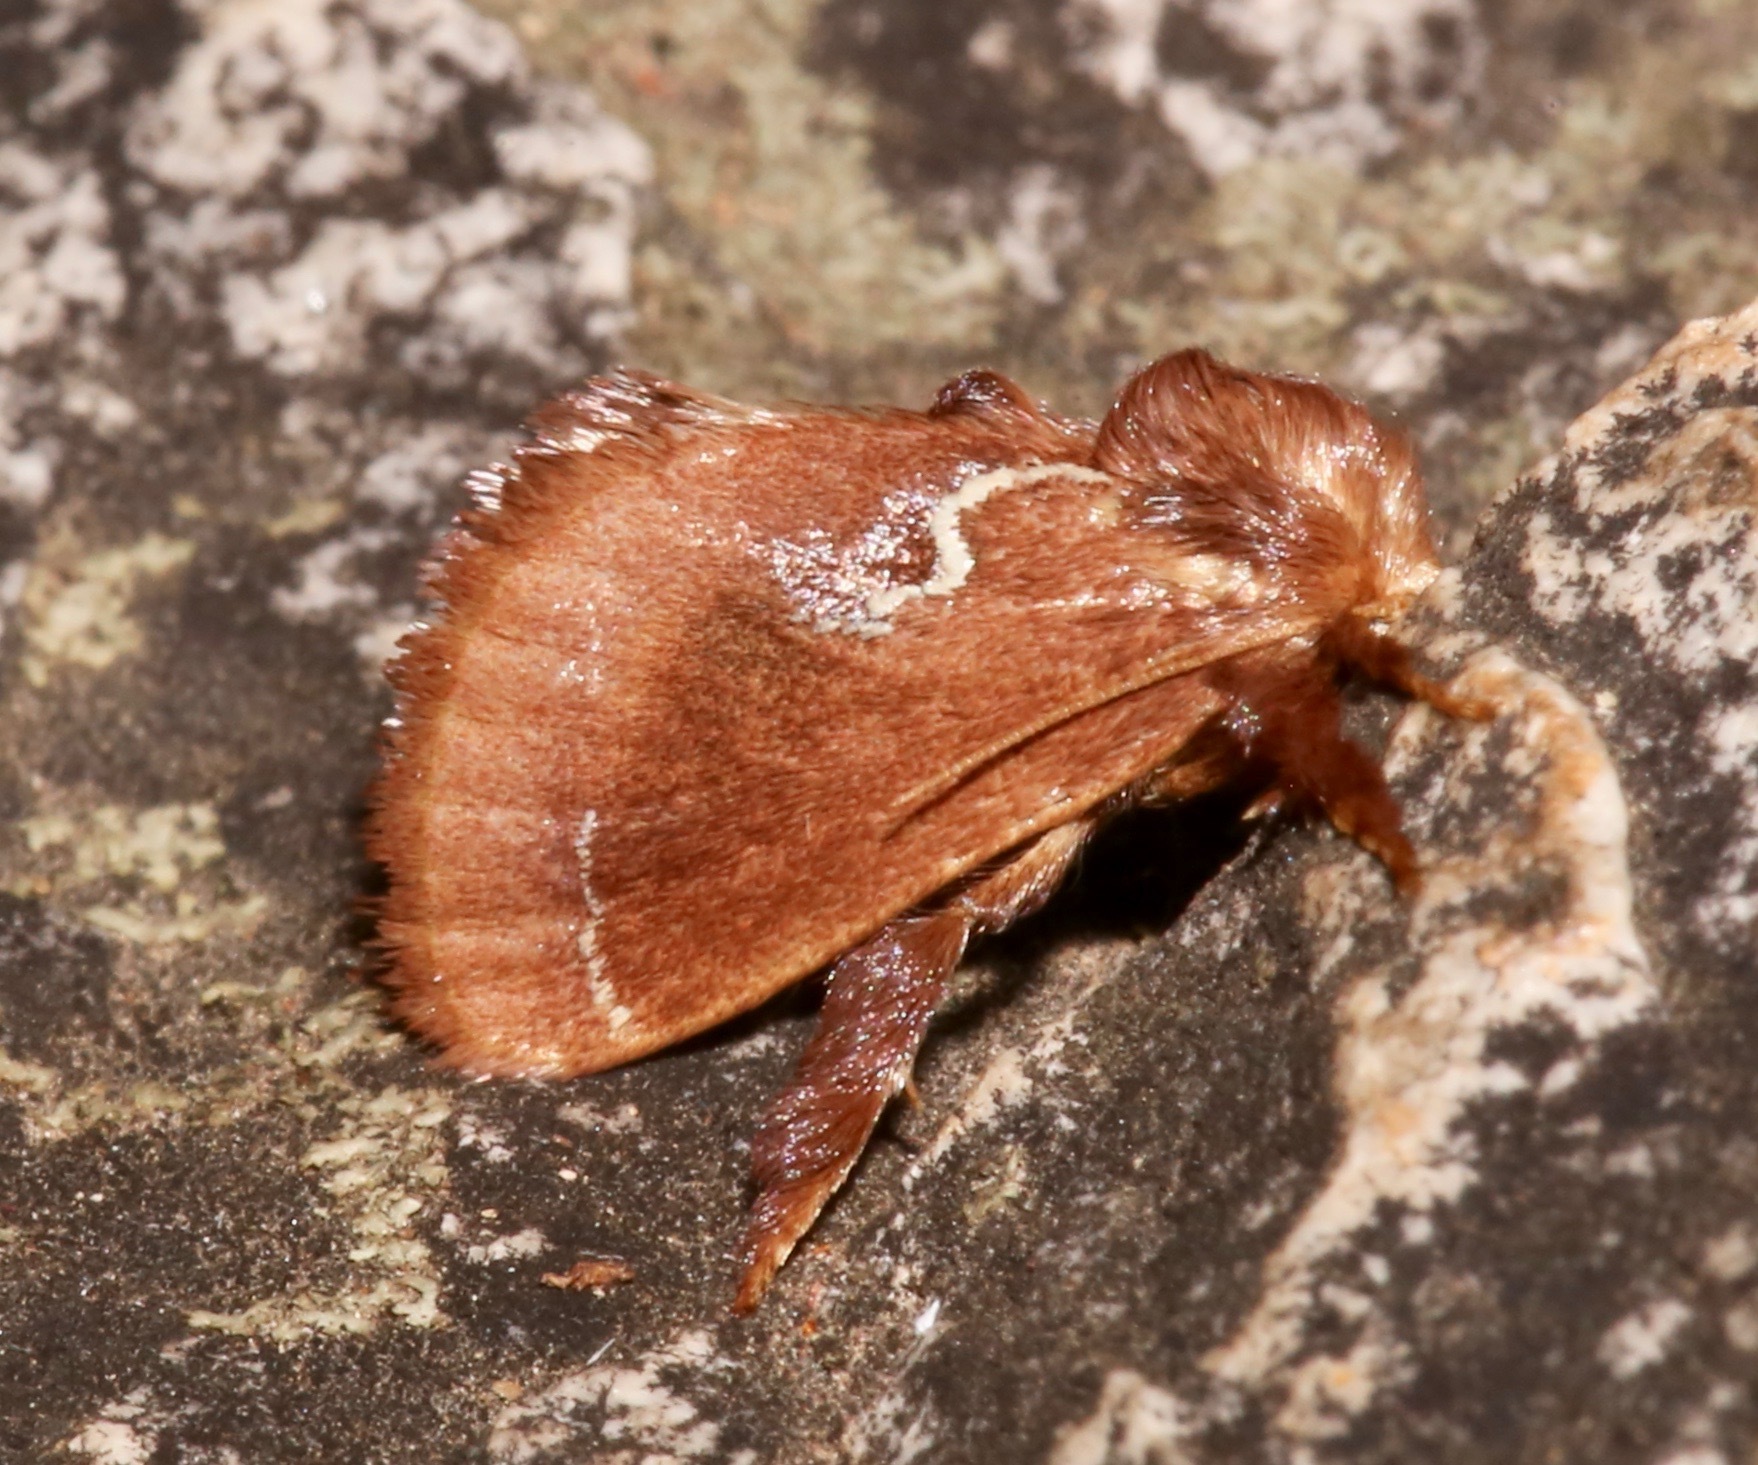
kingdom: Animalia
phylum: Arthropoda
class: Insecta
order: Lepidoptera
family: Limacodidae
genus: Euclea
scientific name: Euclea obliqua
